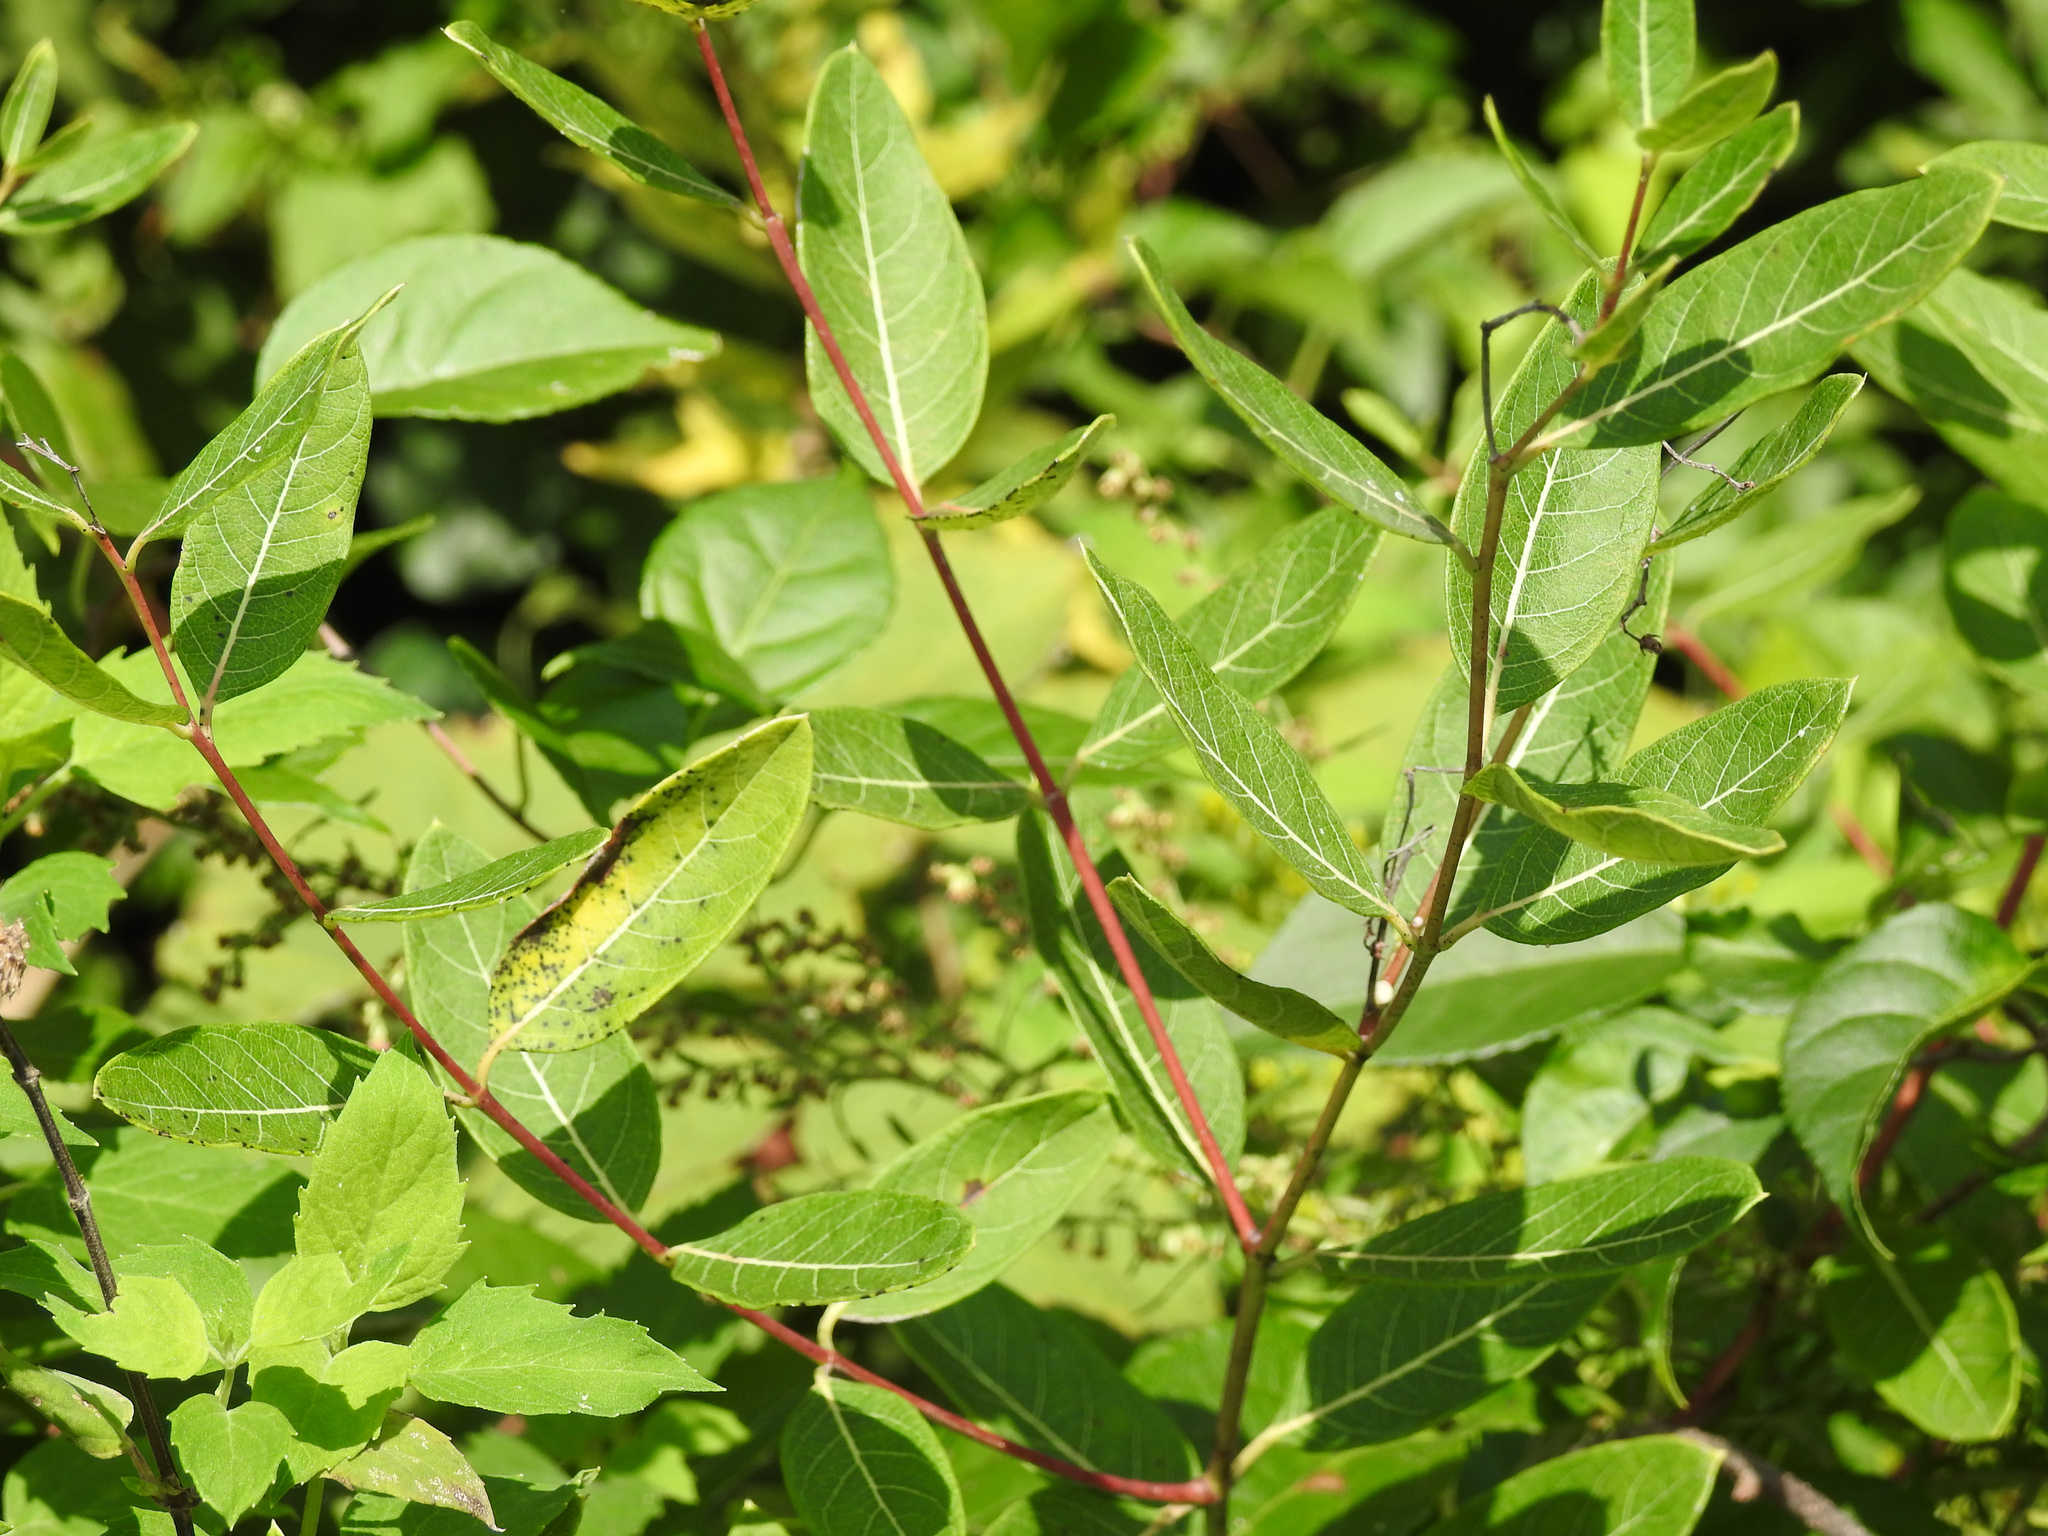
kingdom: Plantae
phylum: Tracheophyta
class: Magnoliopsida
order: Gentianales
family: Apocynaceae
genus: Apocynum
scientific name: Apocynum cannabinum
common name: Hemp dogbane
